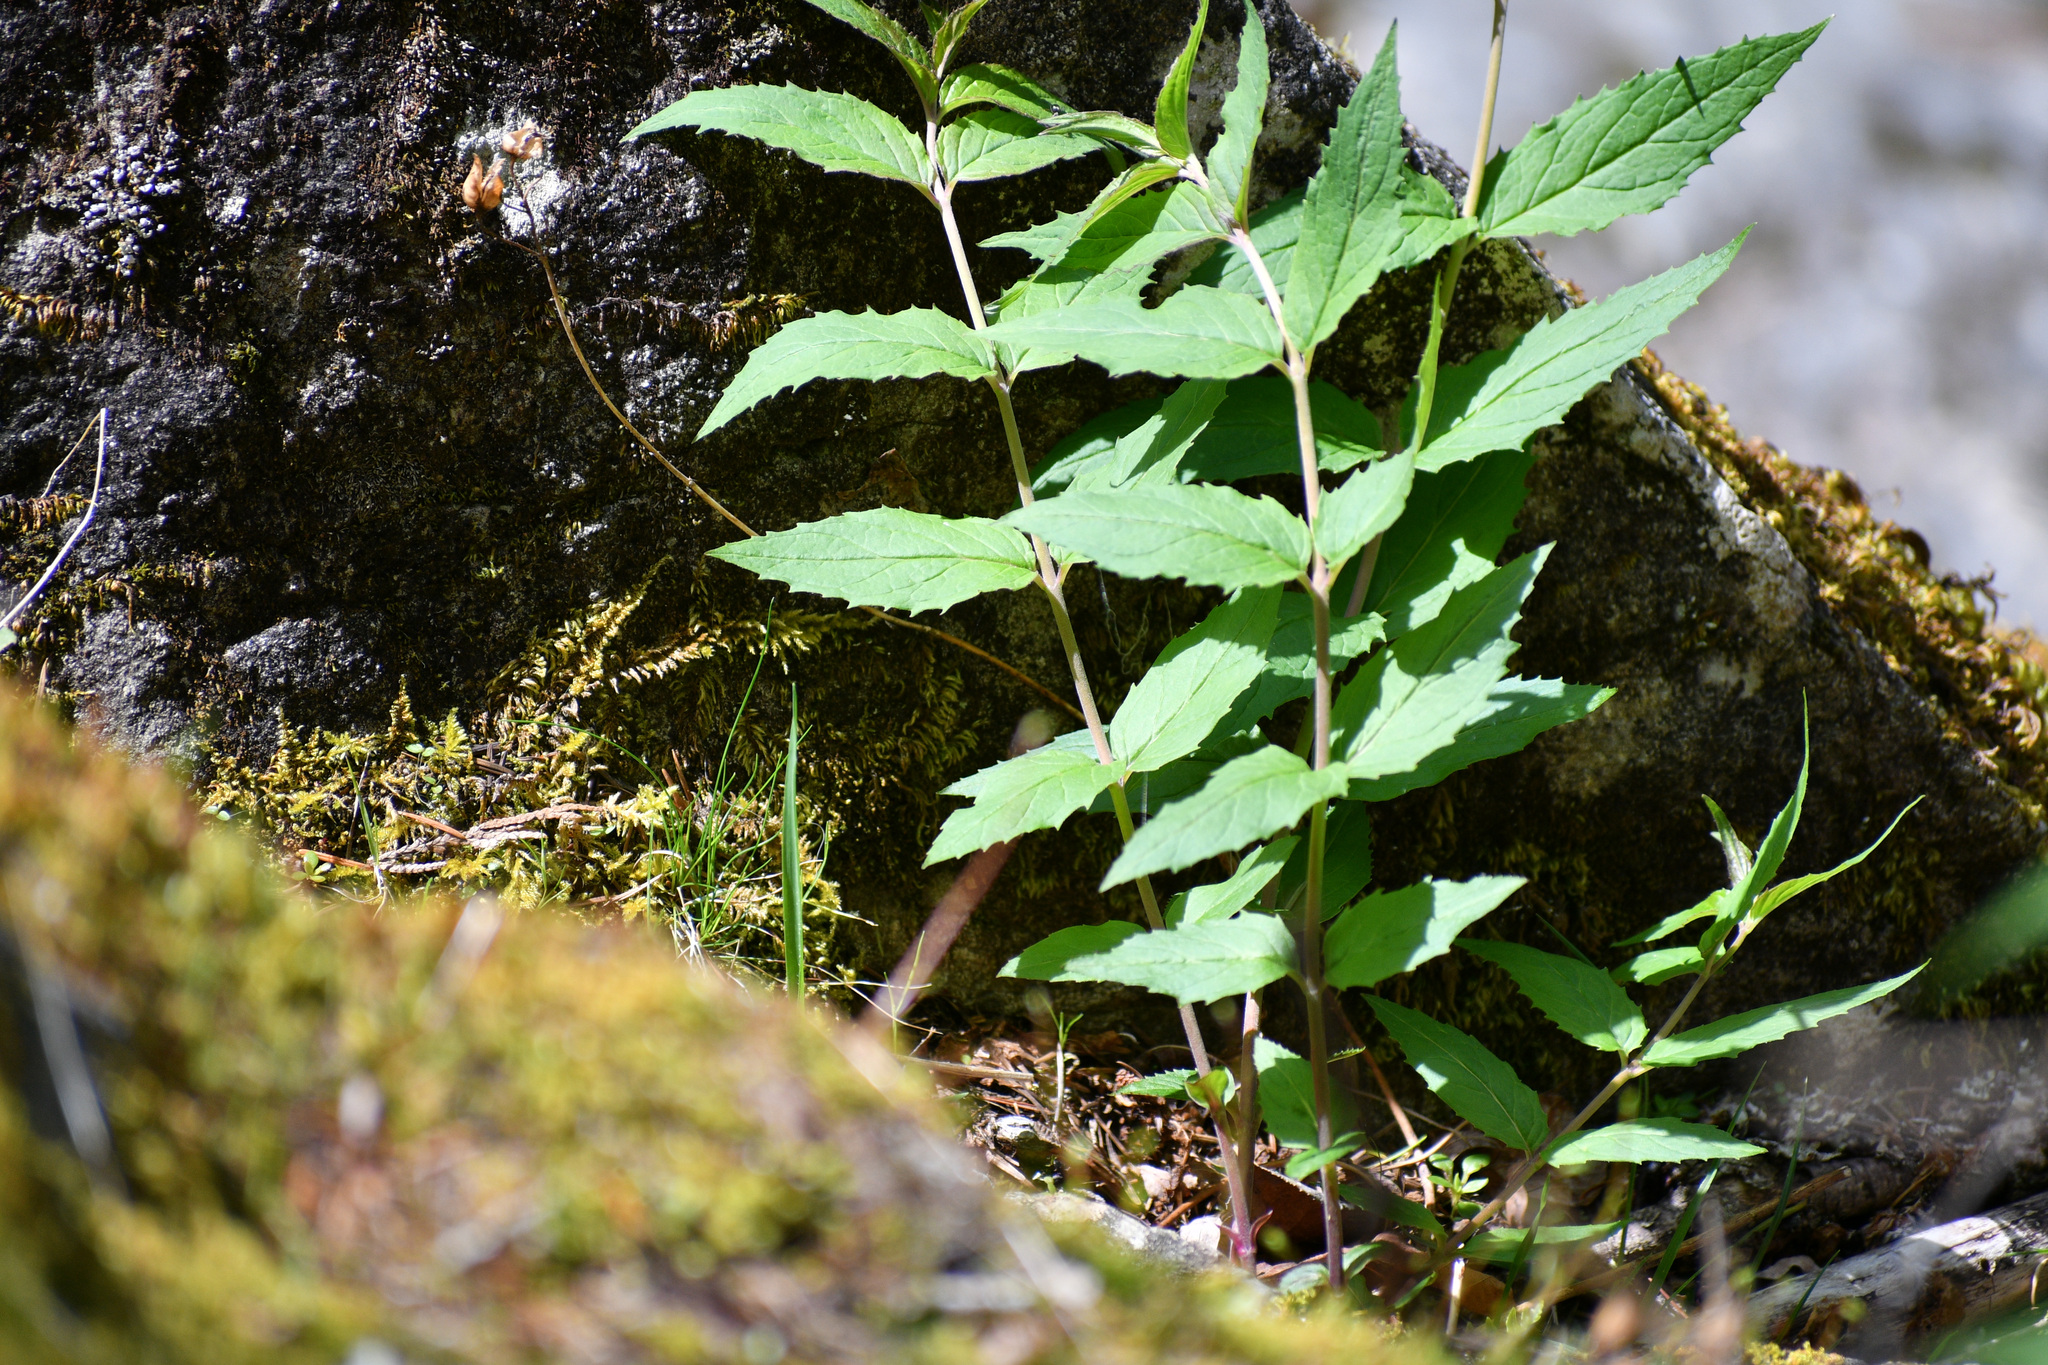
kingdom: Plantae
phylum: Tracheophyta
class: Magnoliopsida
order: Lamiales
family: Plantaginaceae
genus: Nothochelone
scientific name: Nothochelone nemorosa
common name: Woodland beardtongue
